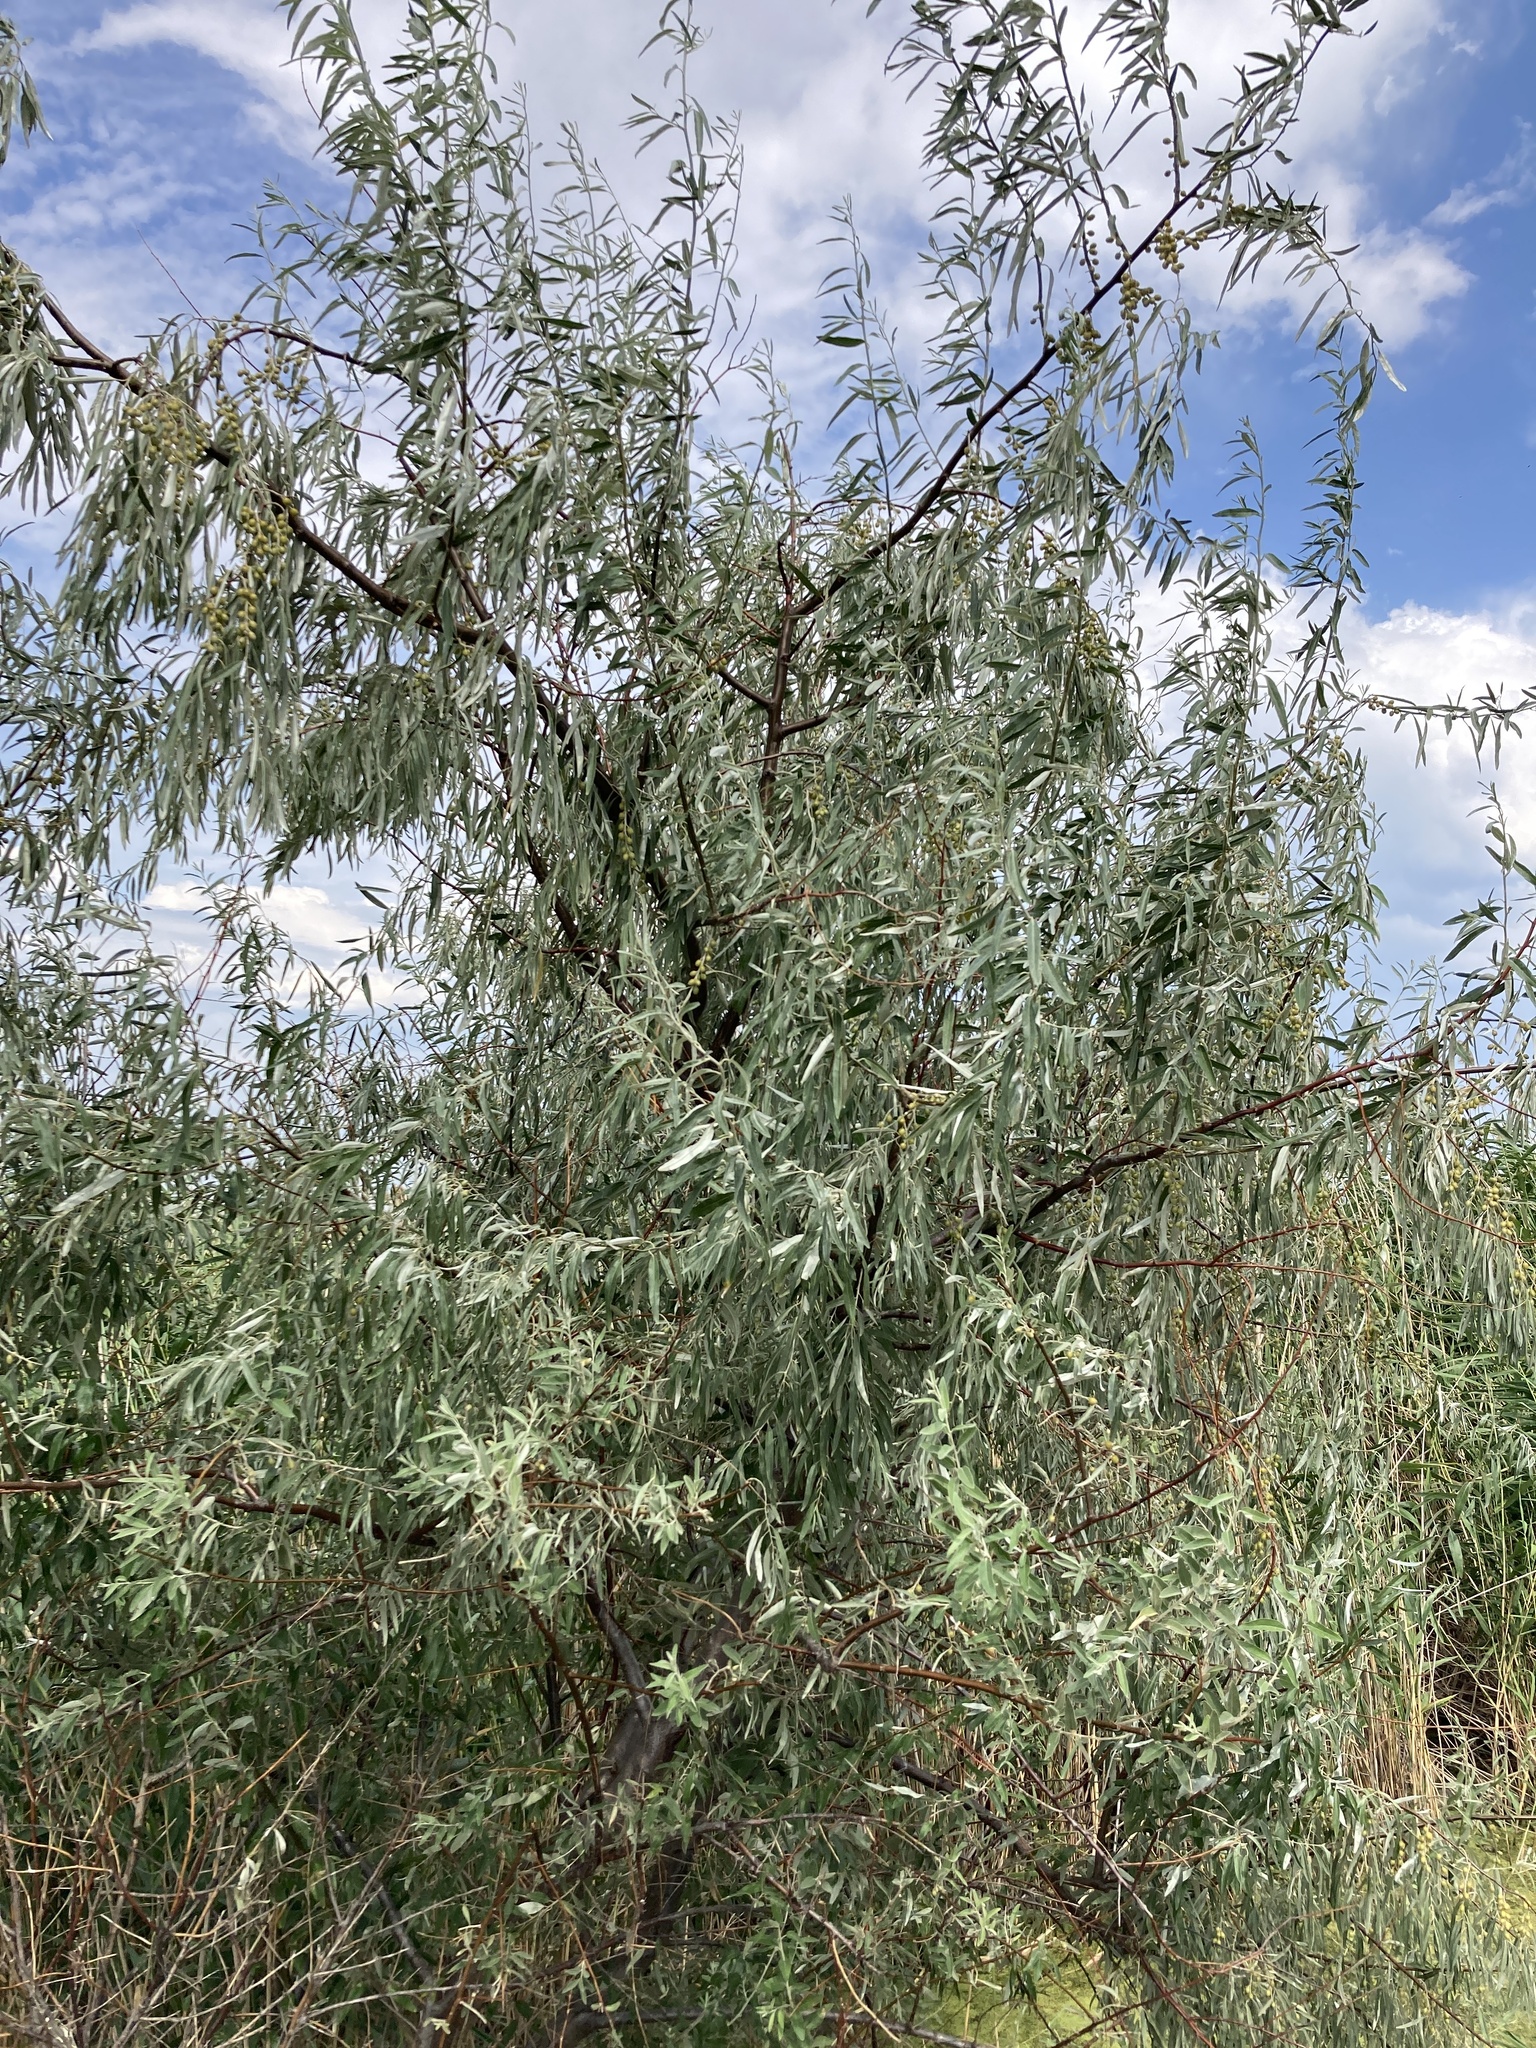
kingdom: Plantae
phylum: Tracheophyta
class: Magnoliopsida
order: Rosales
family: Elaeagnaceae
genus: Elaeagnus
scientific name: Elaeagnus angustifolia
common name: Russian olive
